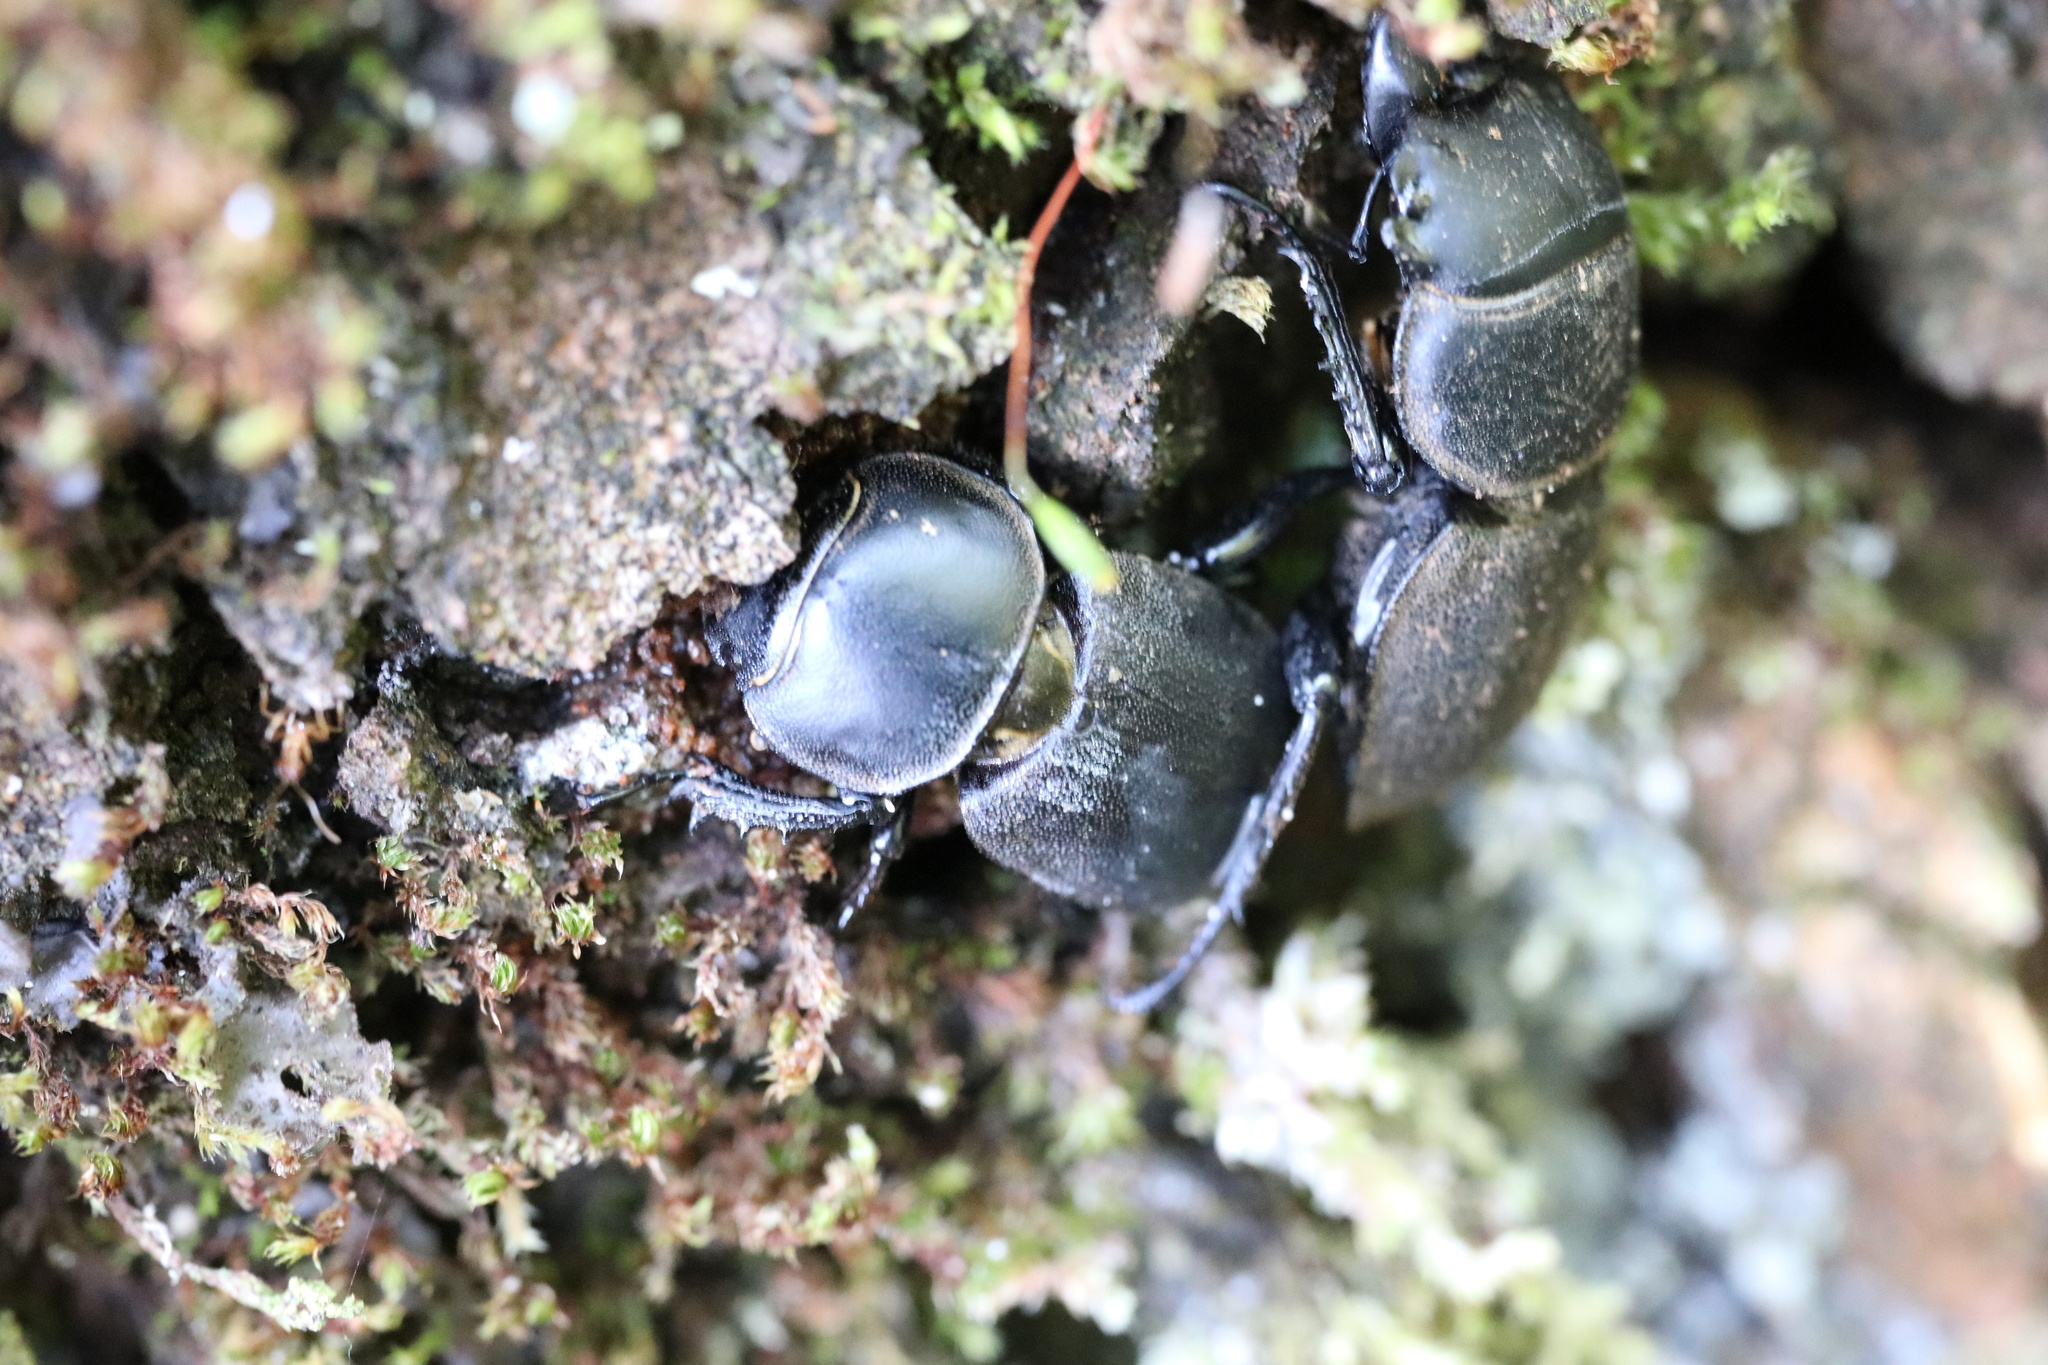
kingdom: Animalia
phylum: Arthropoda
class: Insecta
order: Coleoptera
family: Lucanidae
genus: Apterodorcus
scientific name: Apterodorcus bacchus
